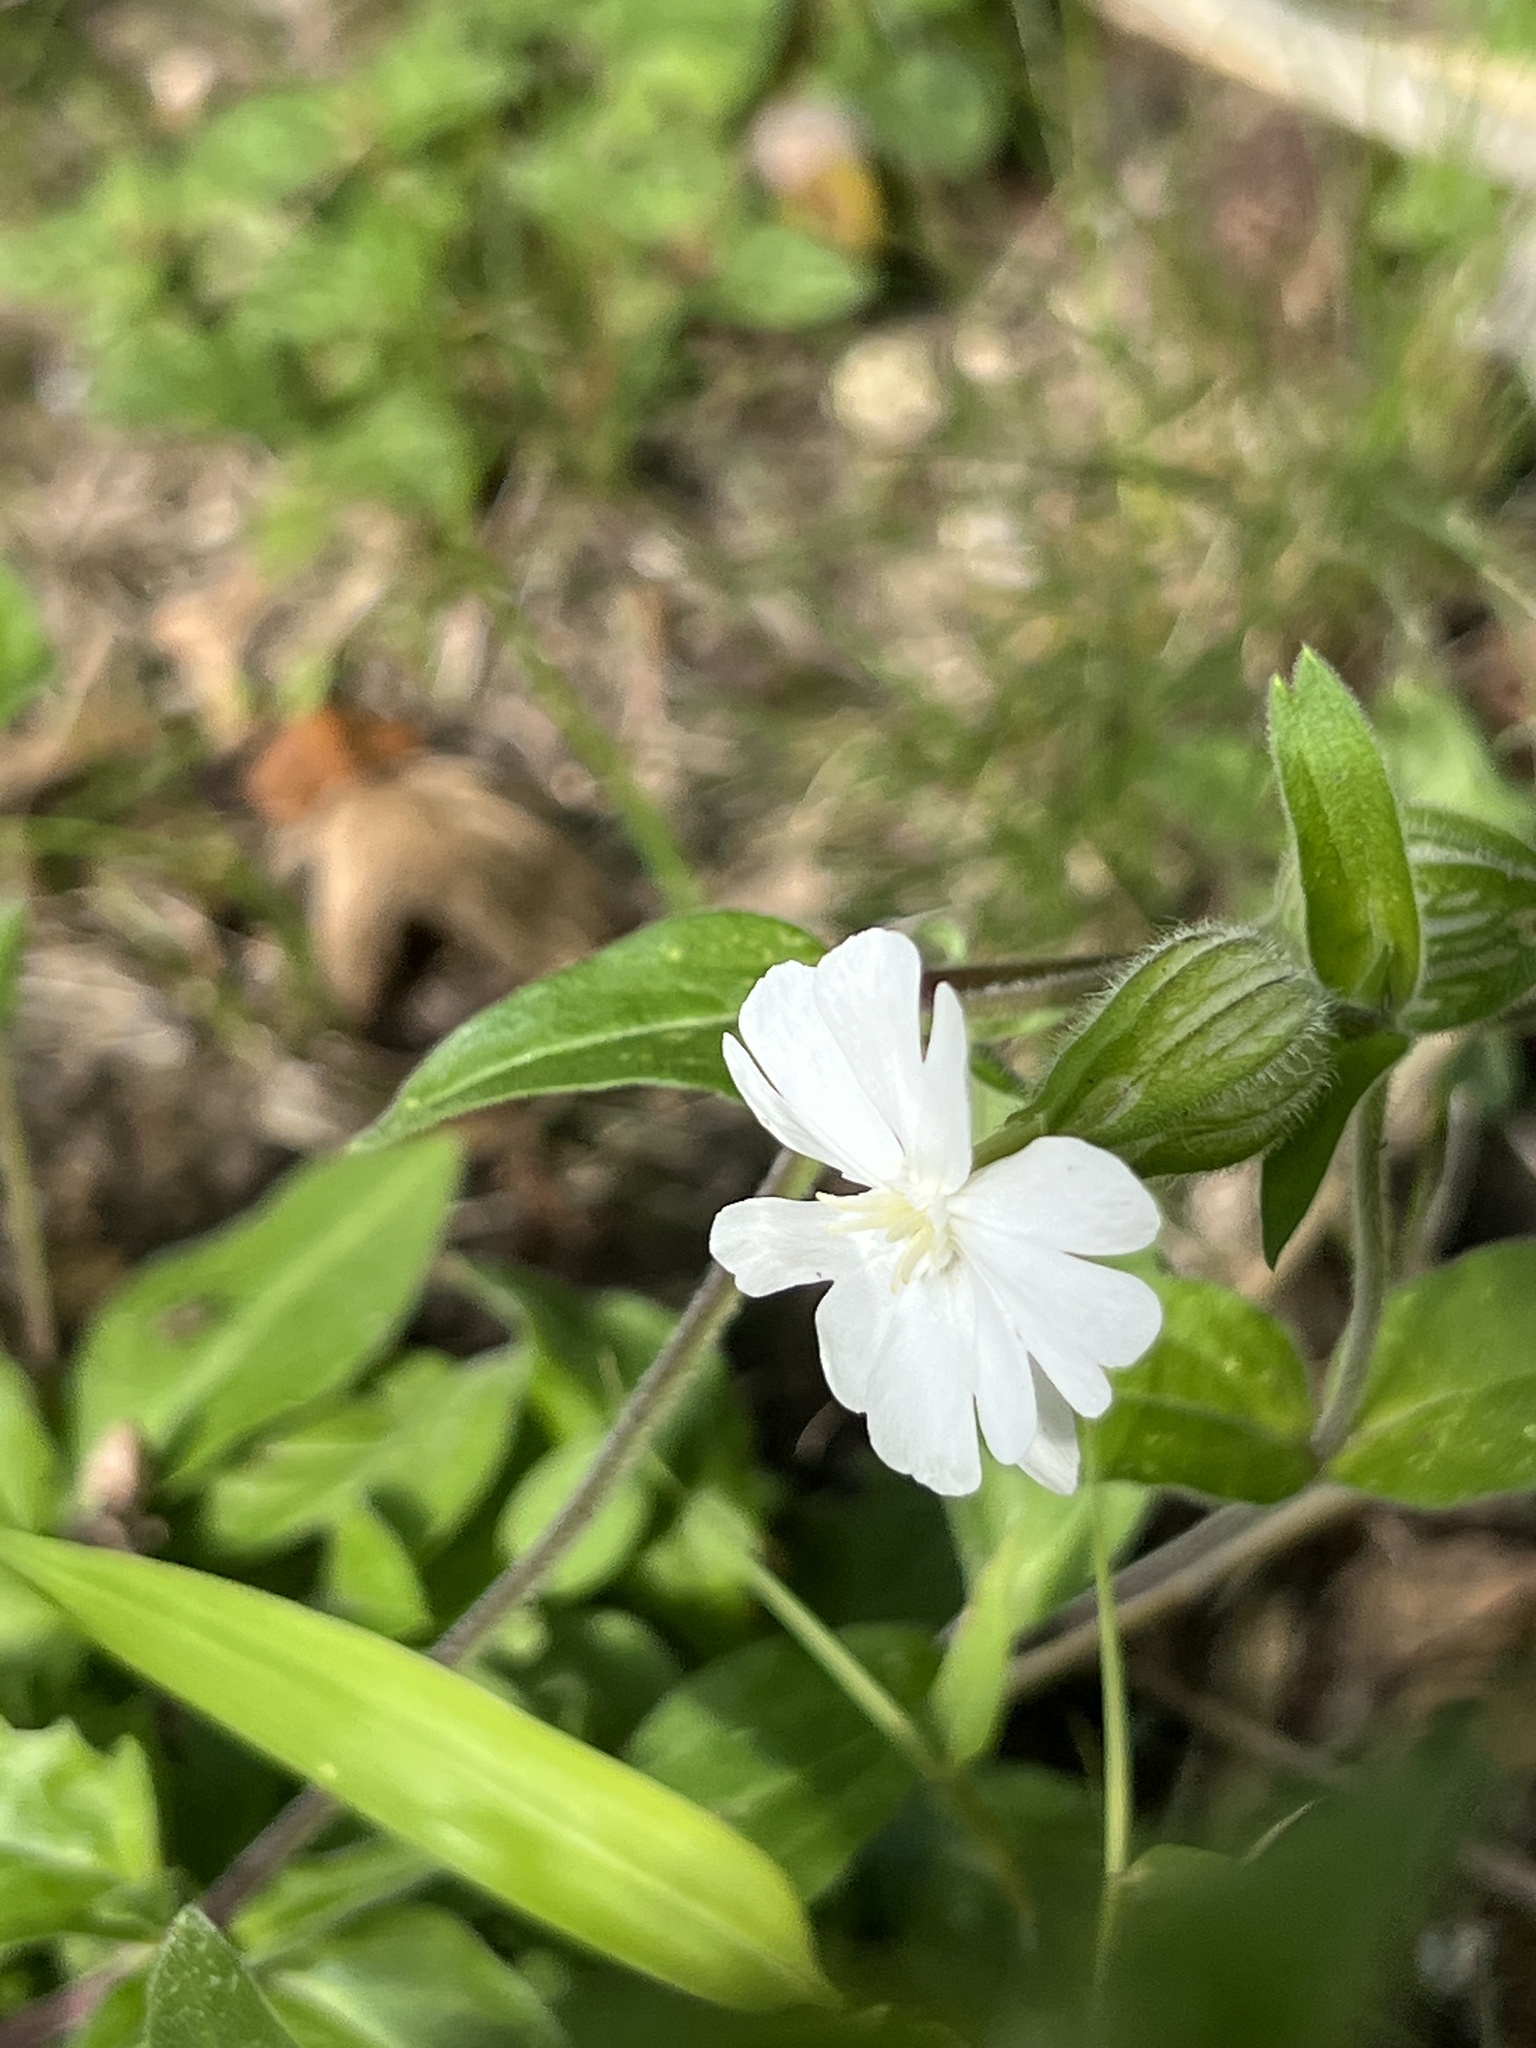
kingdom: Plantae
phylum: Tracheophyta
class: Magnoliopsida
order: Caryophyllales
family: Caryophyllaceae
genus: Silene
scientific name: Silene latifolia
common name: White campion
